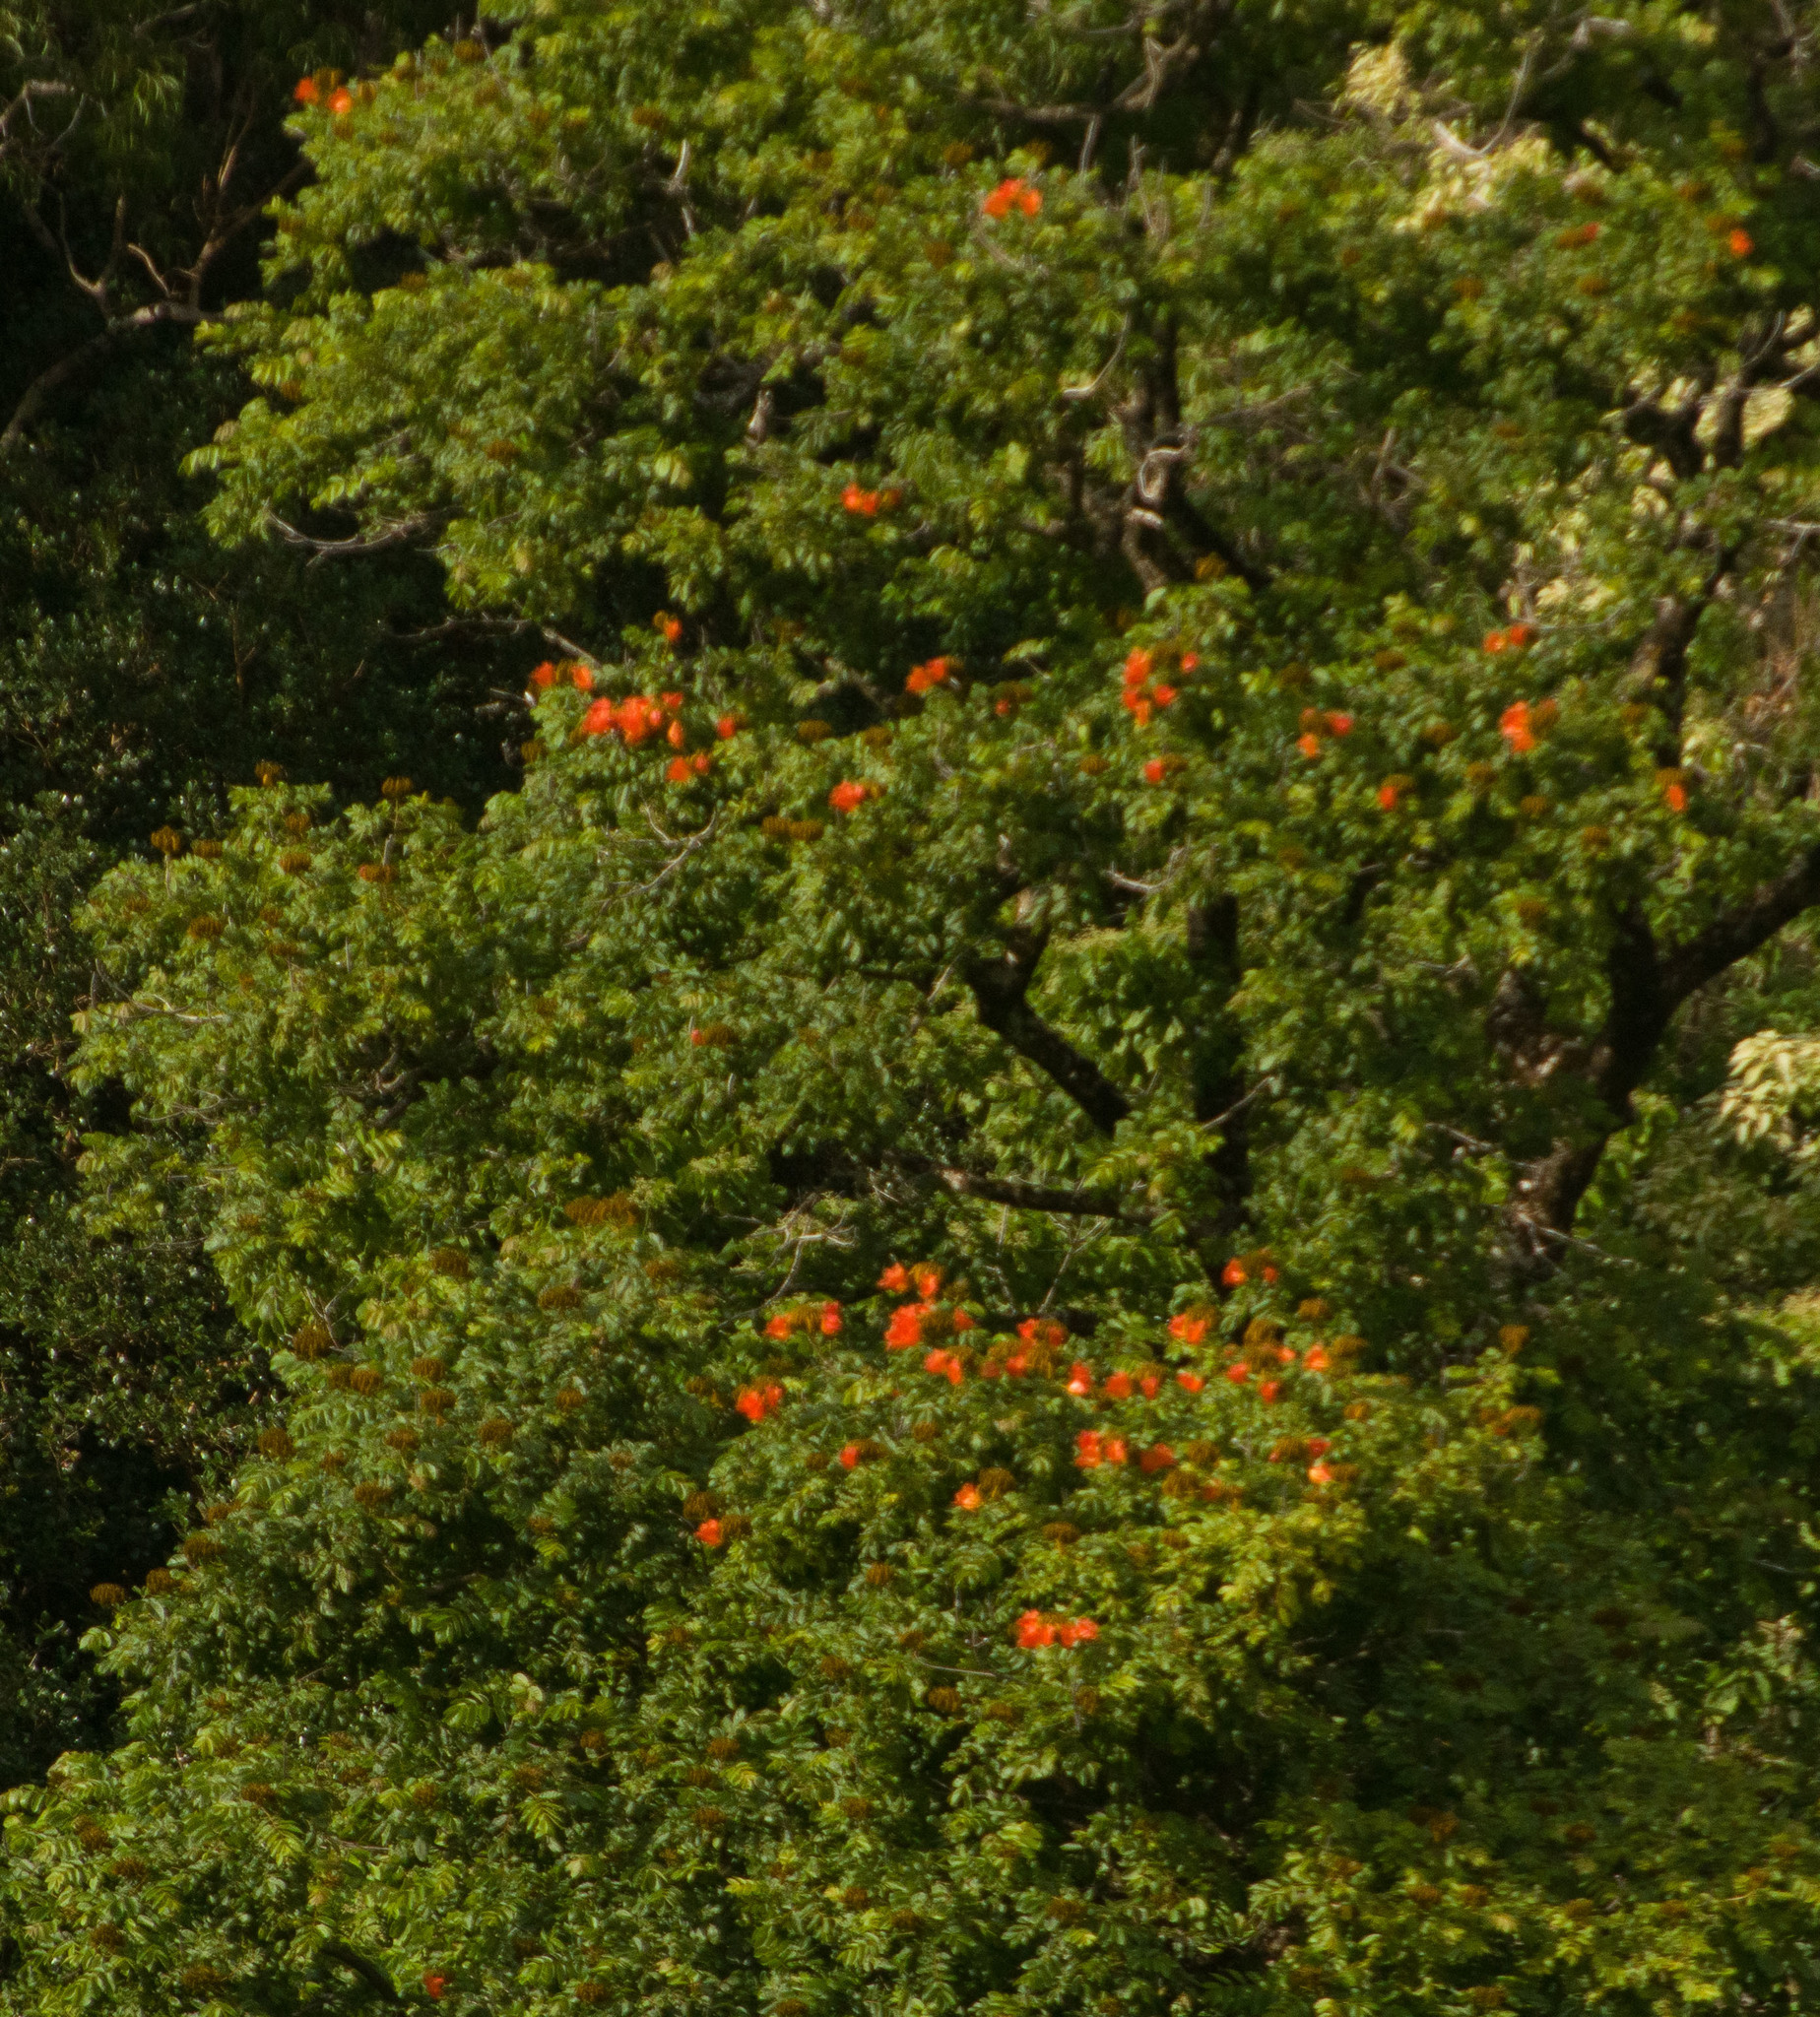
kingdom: Plantae
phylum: Tracheophyta
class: Magnoliopsida
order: Lamiales
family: Bignoniaceae
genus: Spathodea
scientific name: Spathodea campanulata
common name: African tuliptree
